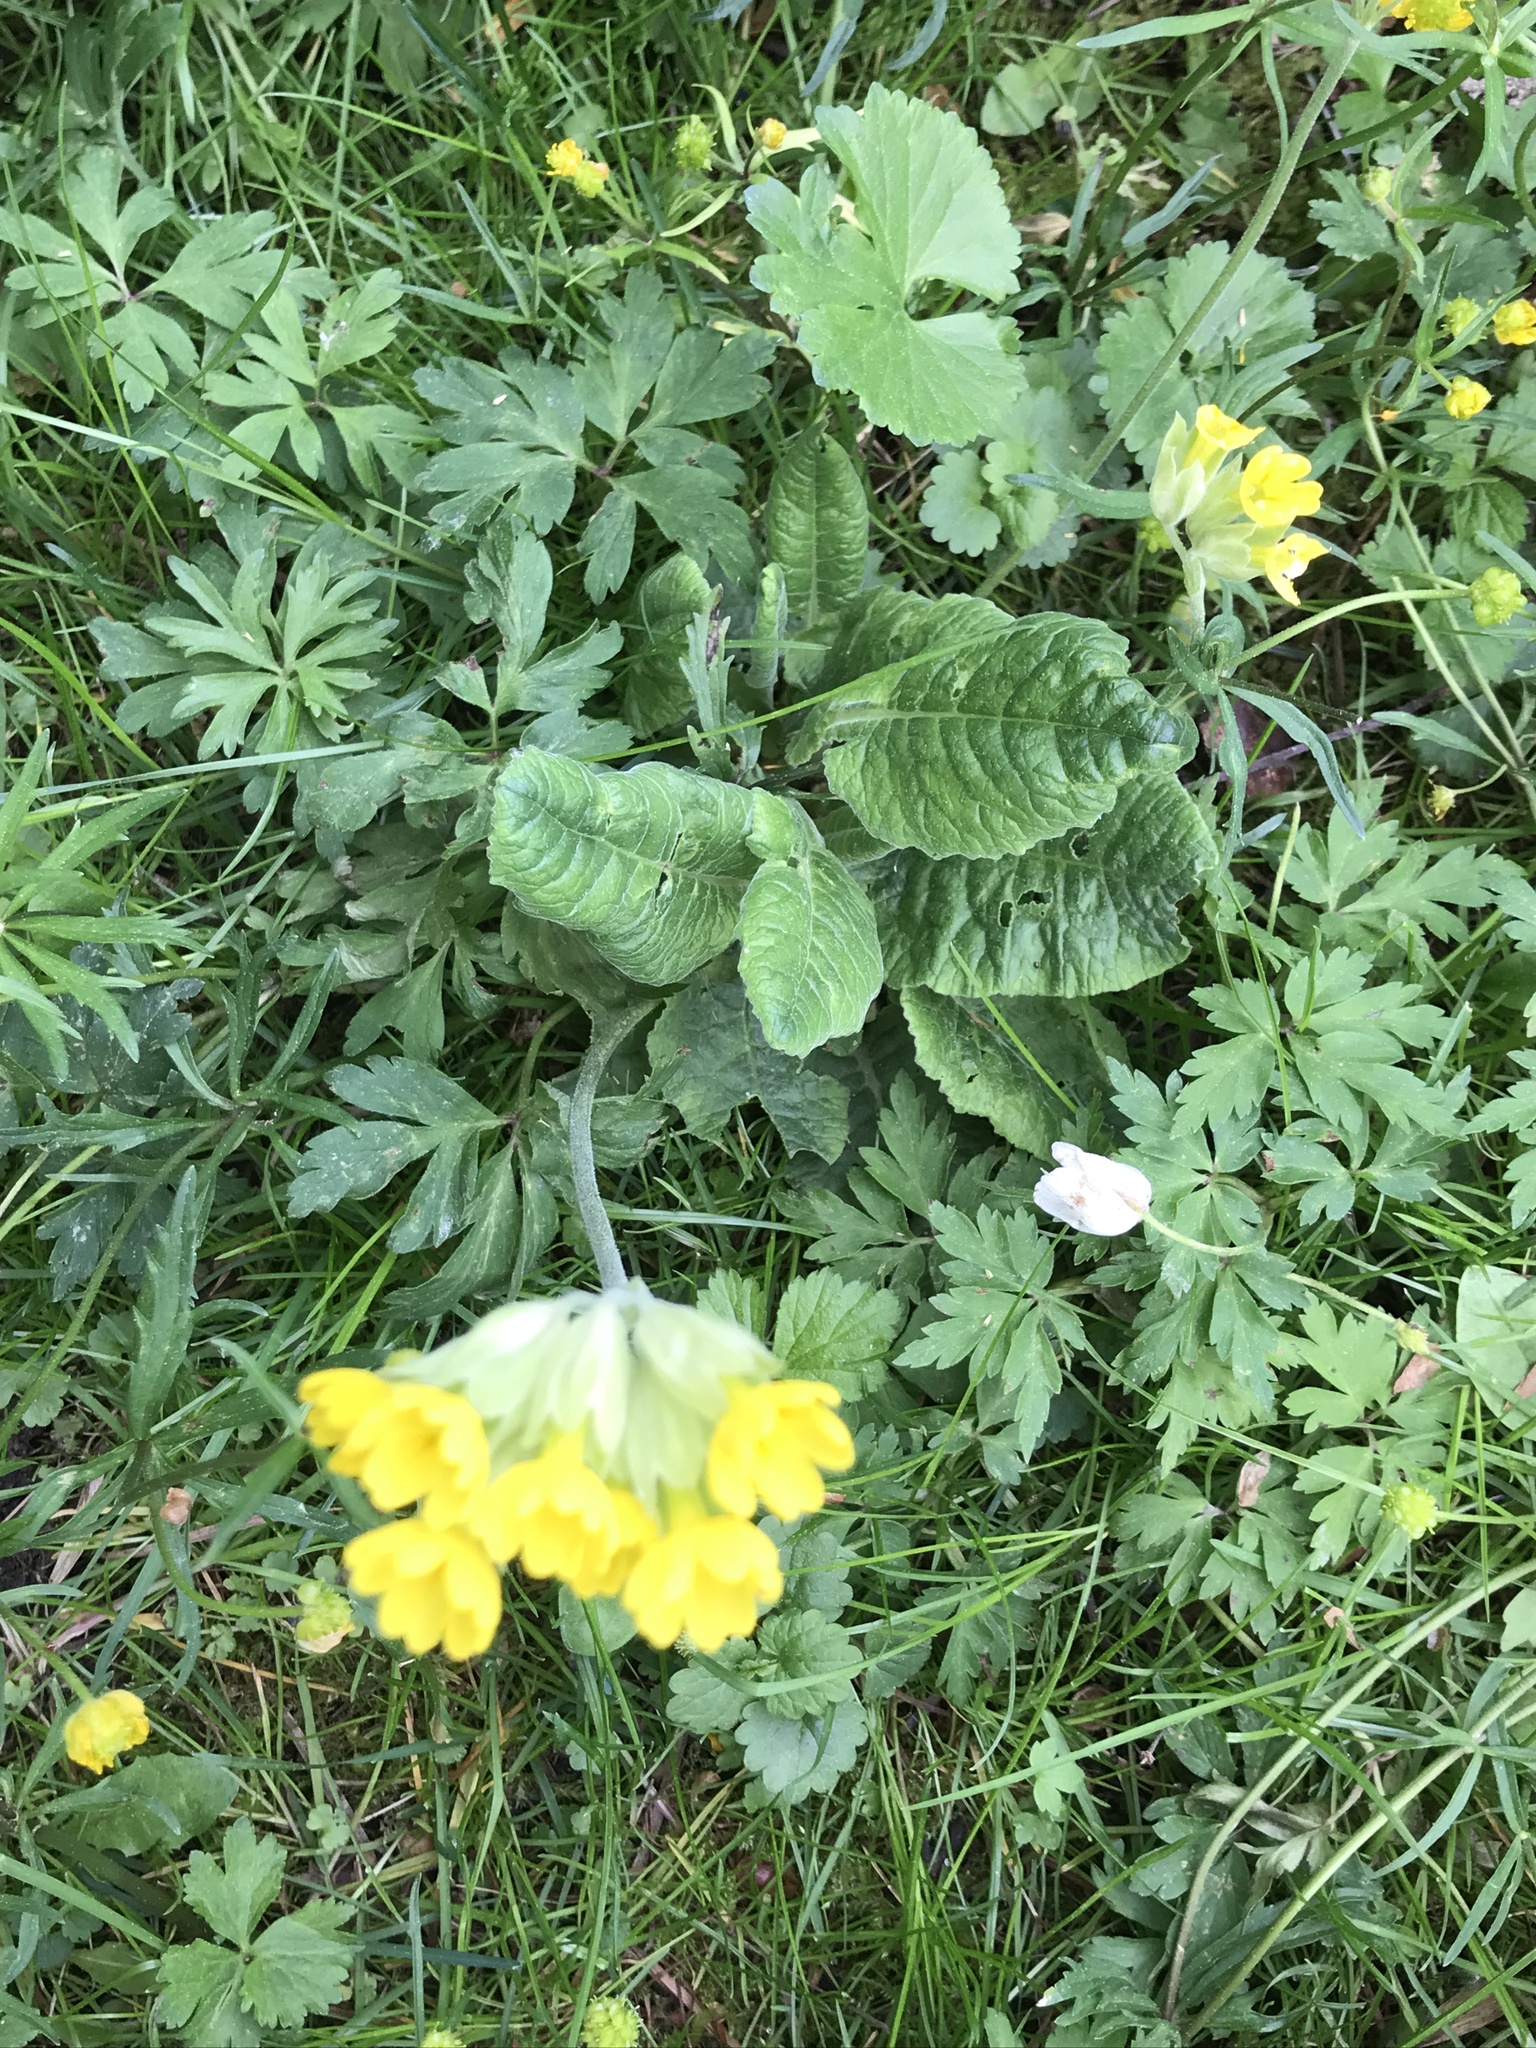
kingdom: Plantae
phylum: Tracheophyta
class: Magnoliopsida
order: Ericales
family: Primulaceae
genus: Primula
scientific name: Primula veris
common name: Cowslip
